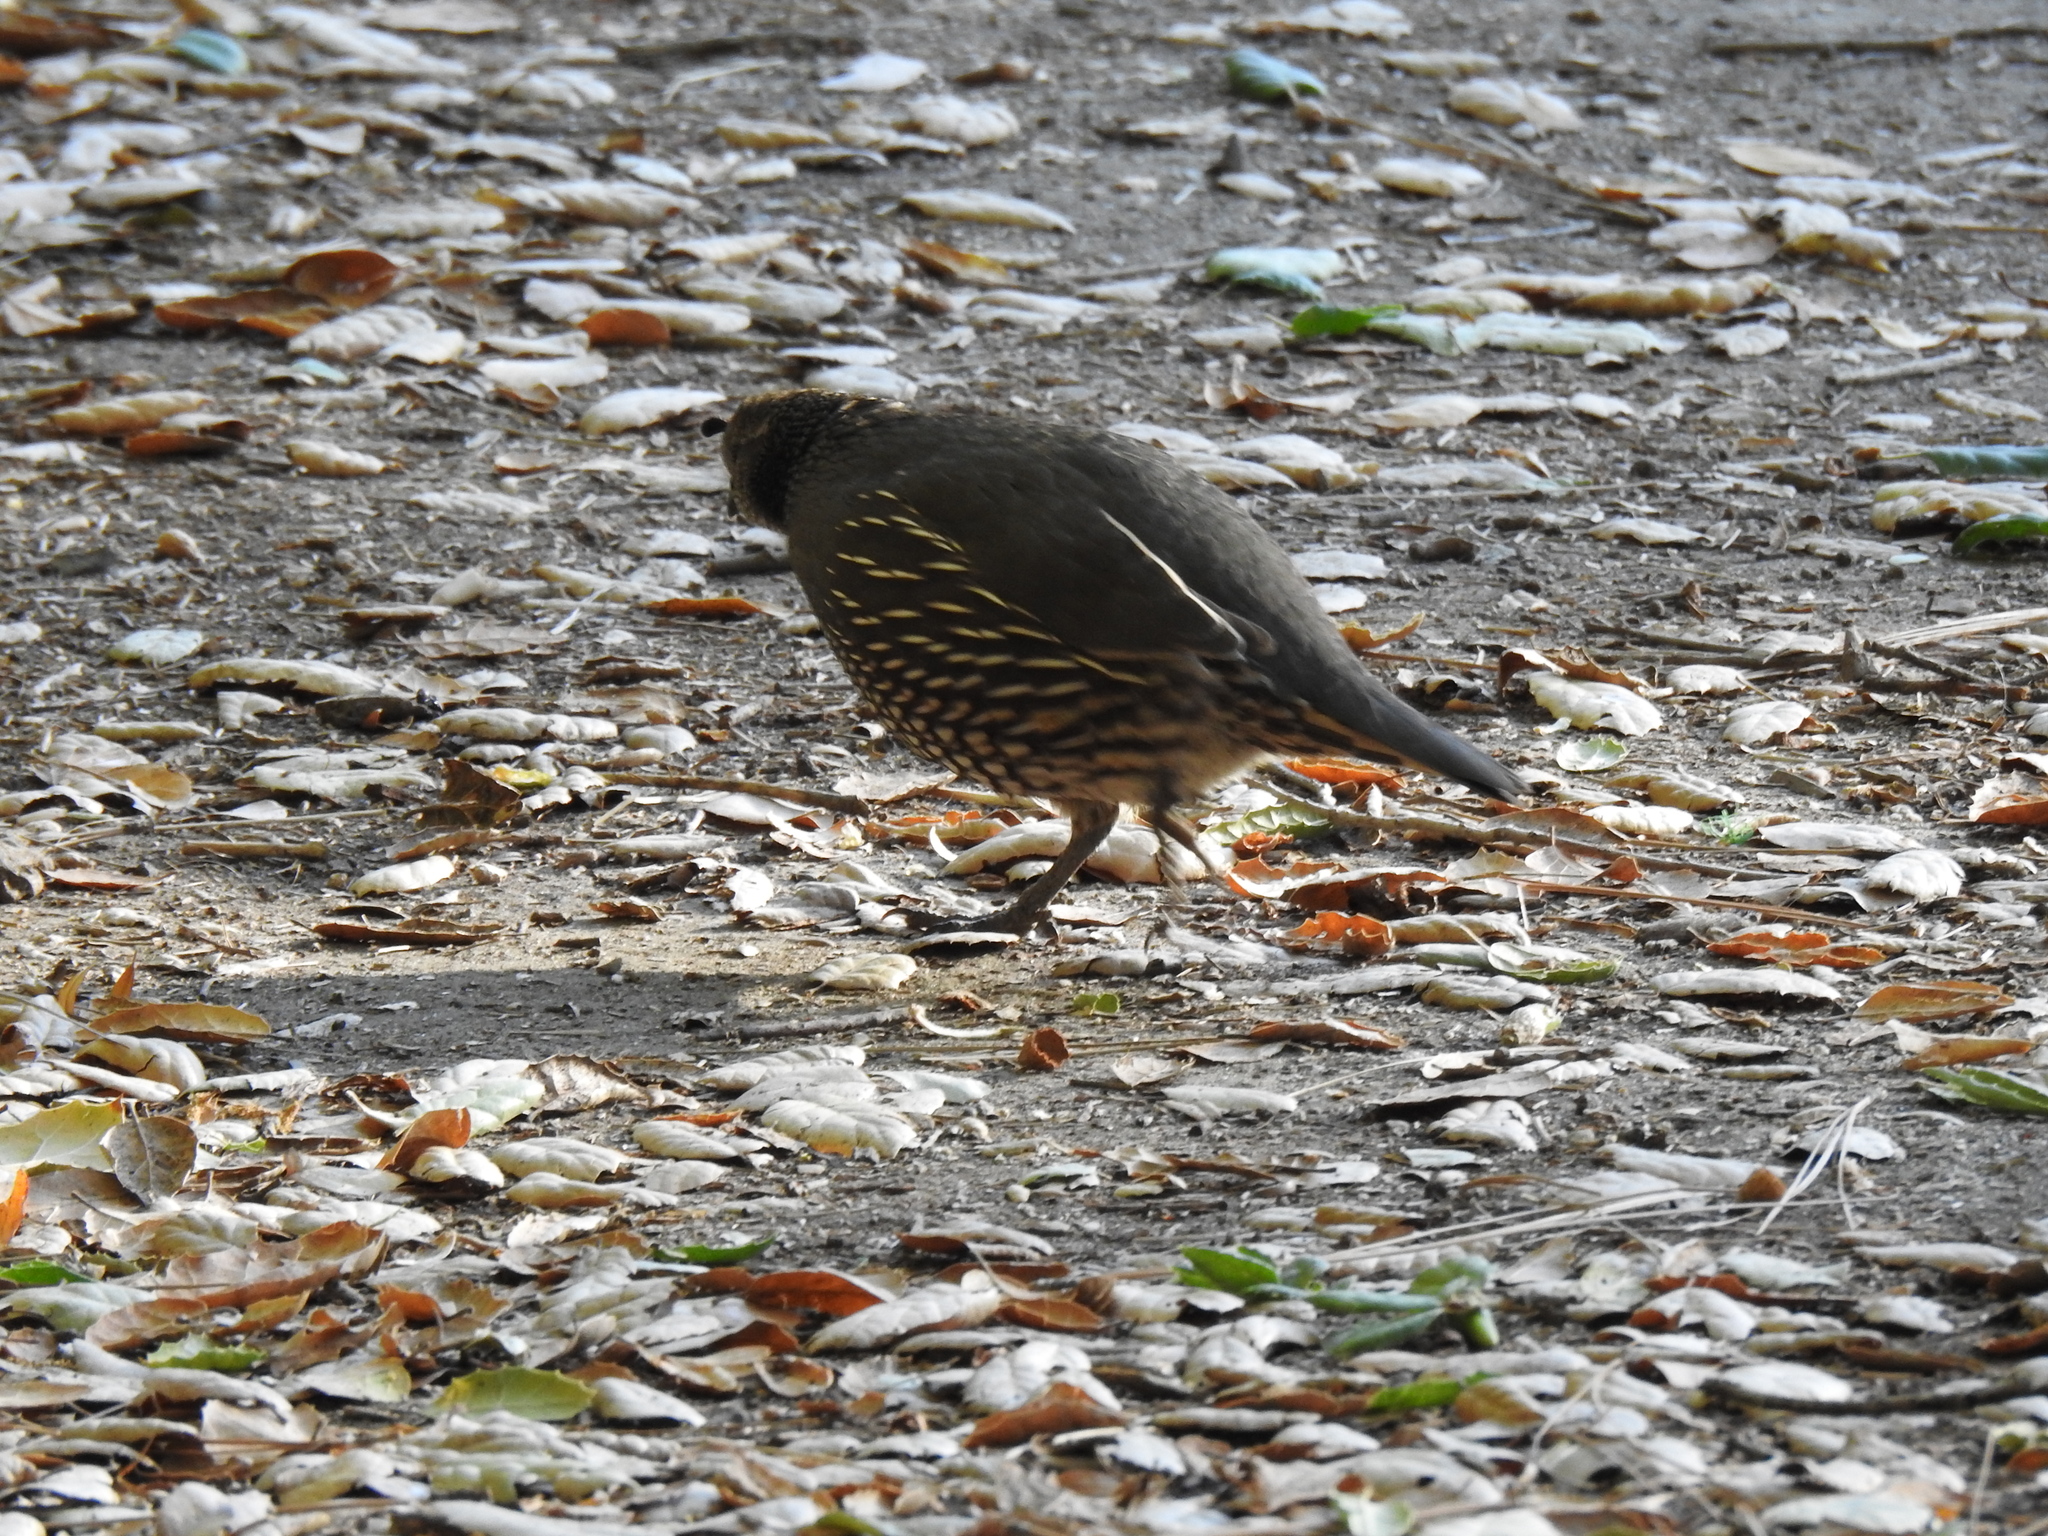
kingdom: Animalia
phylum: Chordata
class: Aves
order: Galliformes
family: Odontophoridae
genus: Callipepla
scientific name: Callipepla californica
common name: California quail
